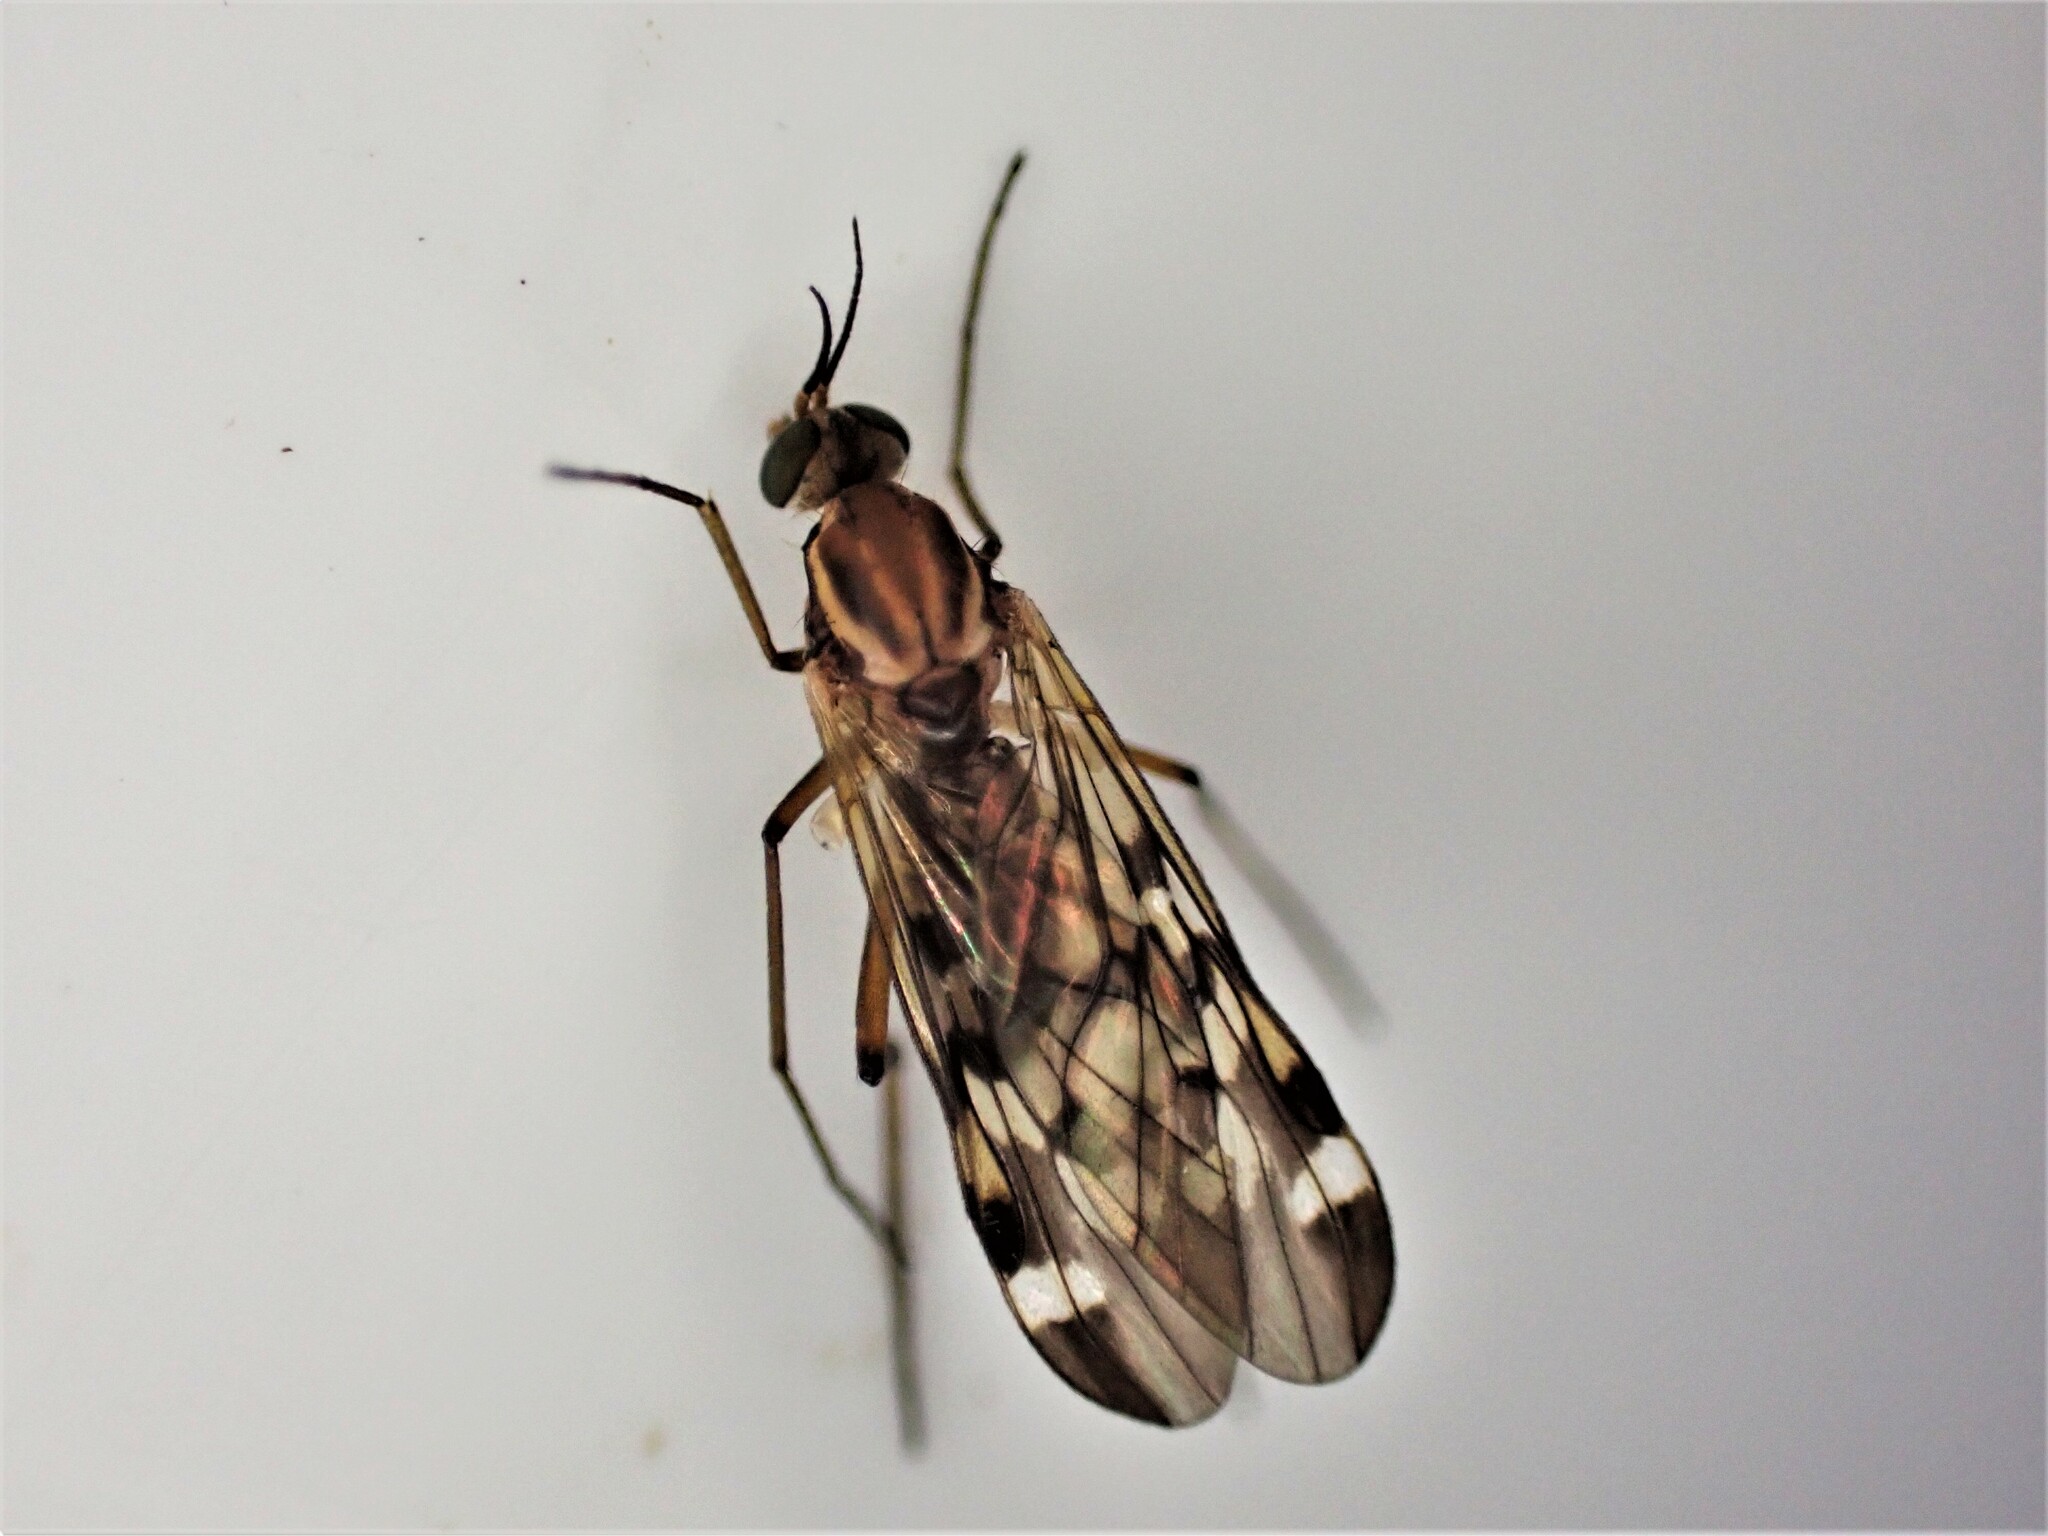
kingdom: Animalia
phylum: Arthropoda
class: Insecta
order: Diptera
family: Anisopodidae
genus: Sylvicola
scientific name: Sylvicola notatus
